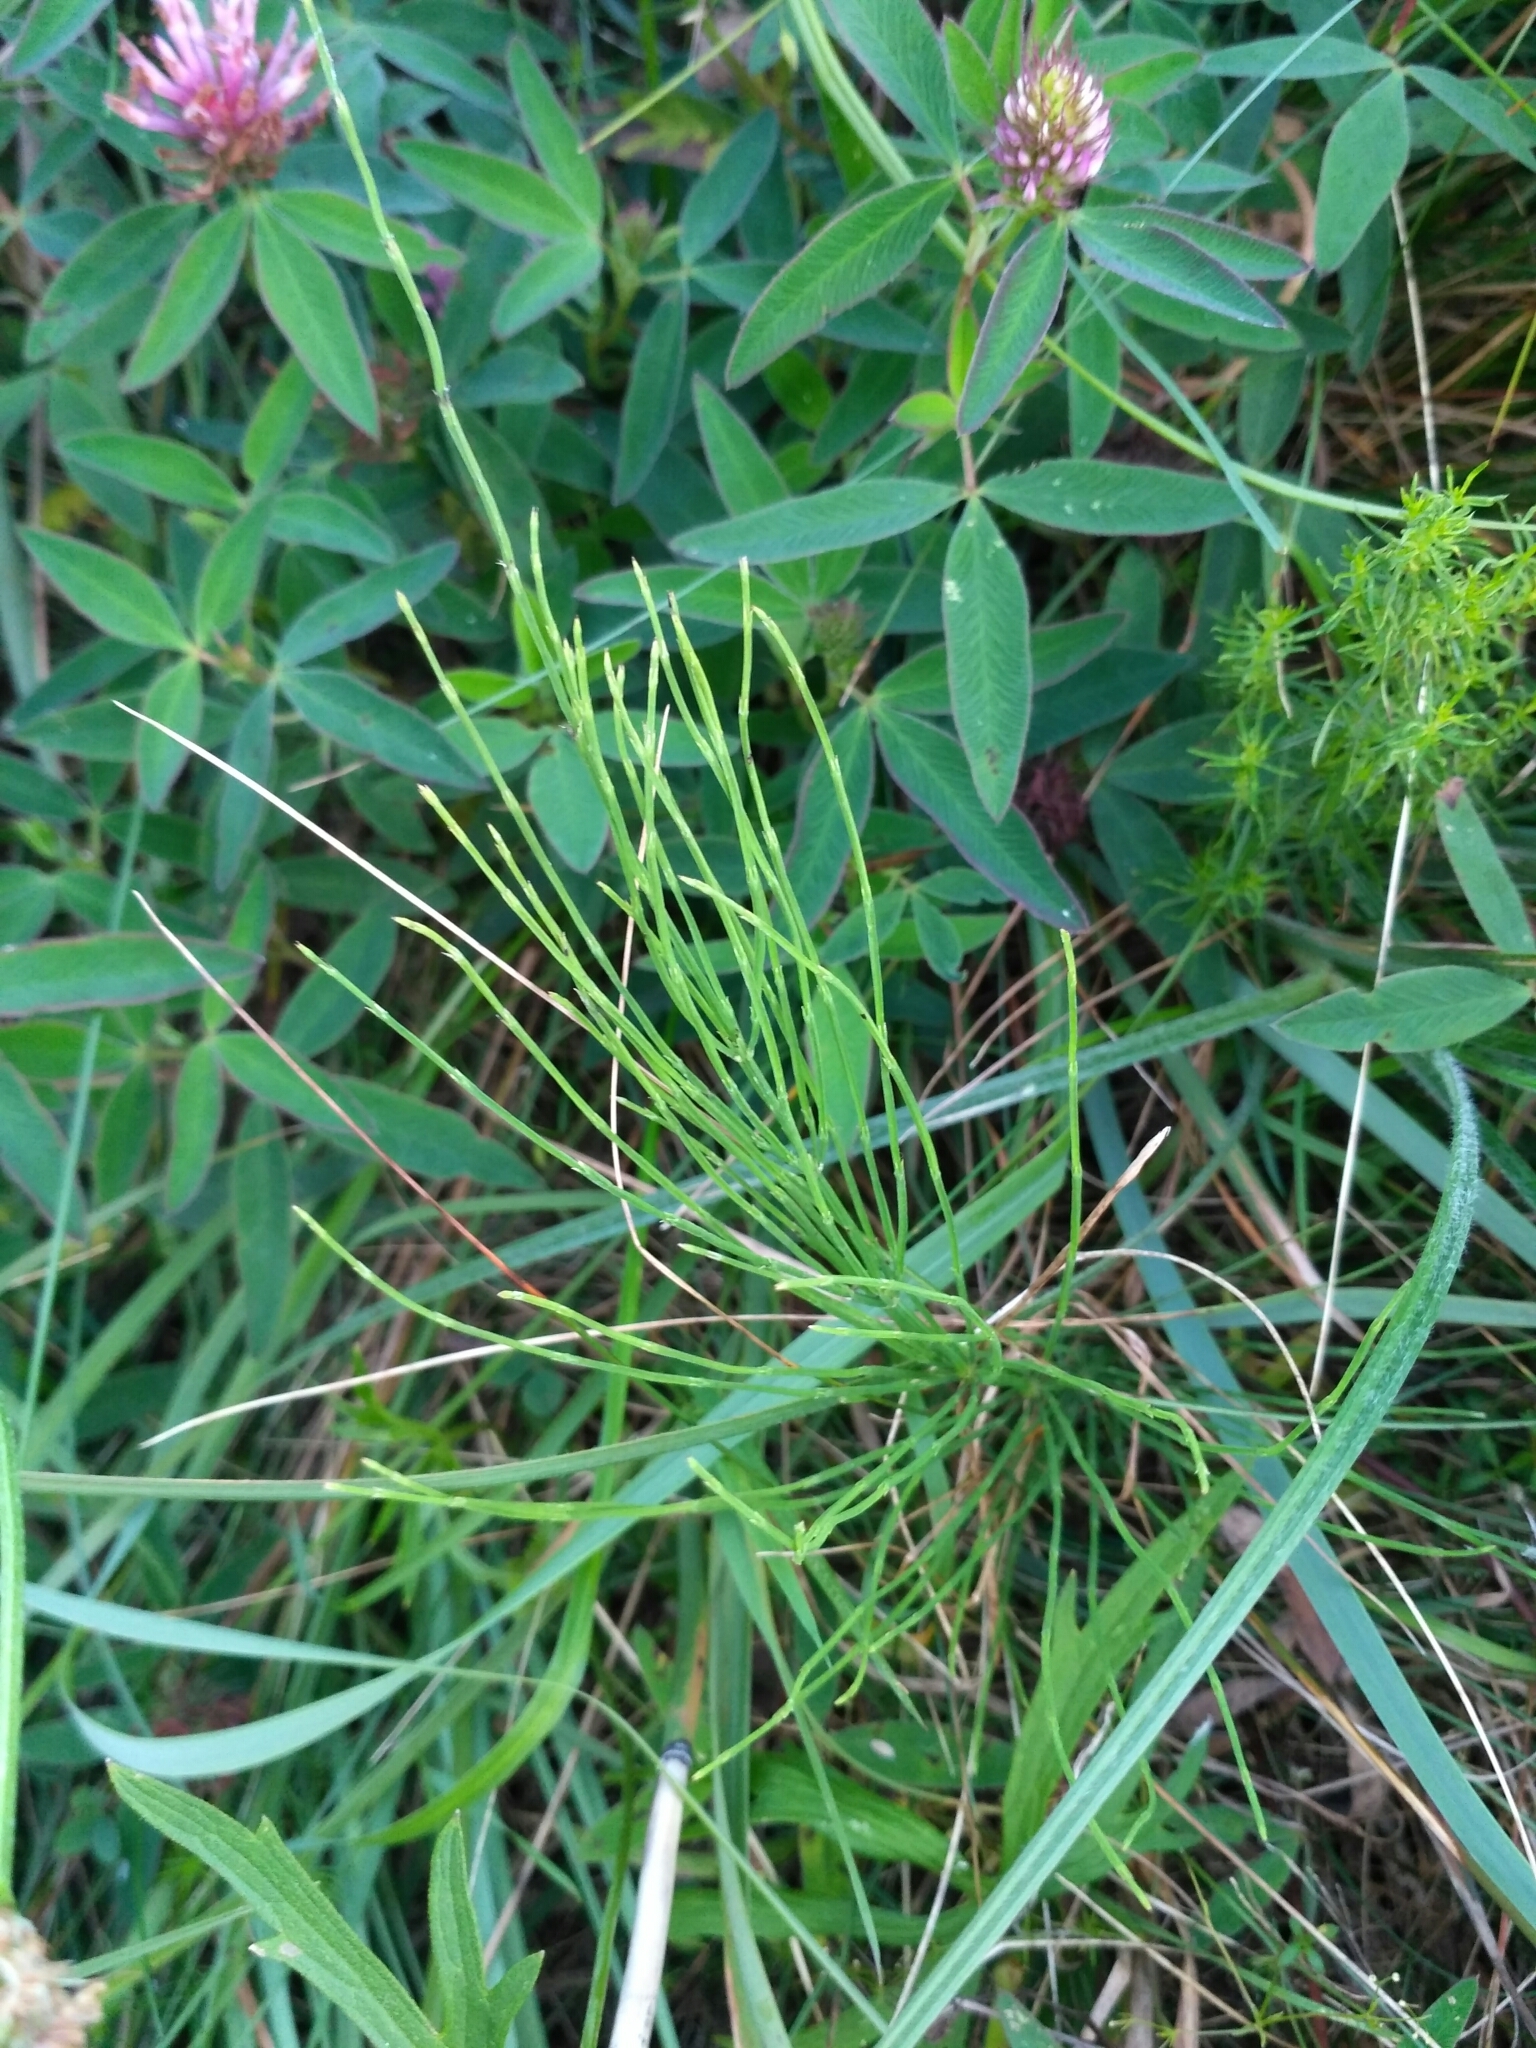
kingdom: Plantae
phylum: Tracheophyta
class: Polypodiopsida
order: Equisetales
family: Equisetaceae
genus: Equisetum
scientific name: Equisetum arvense
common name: Field horsetail
